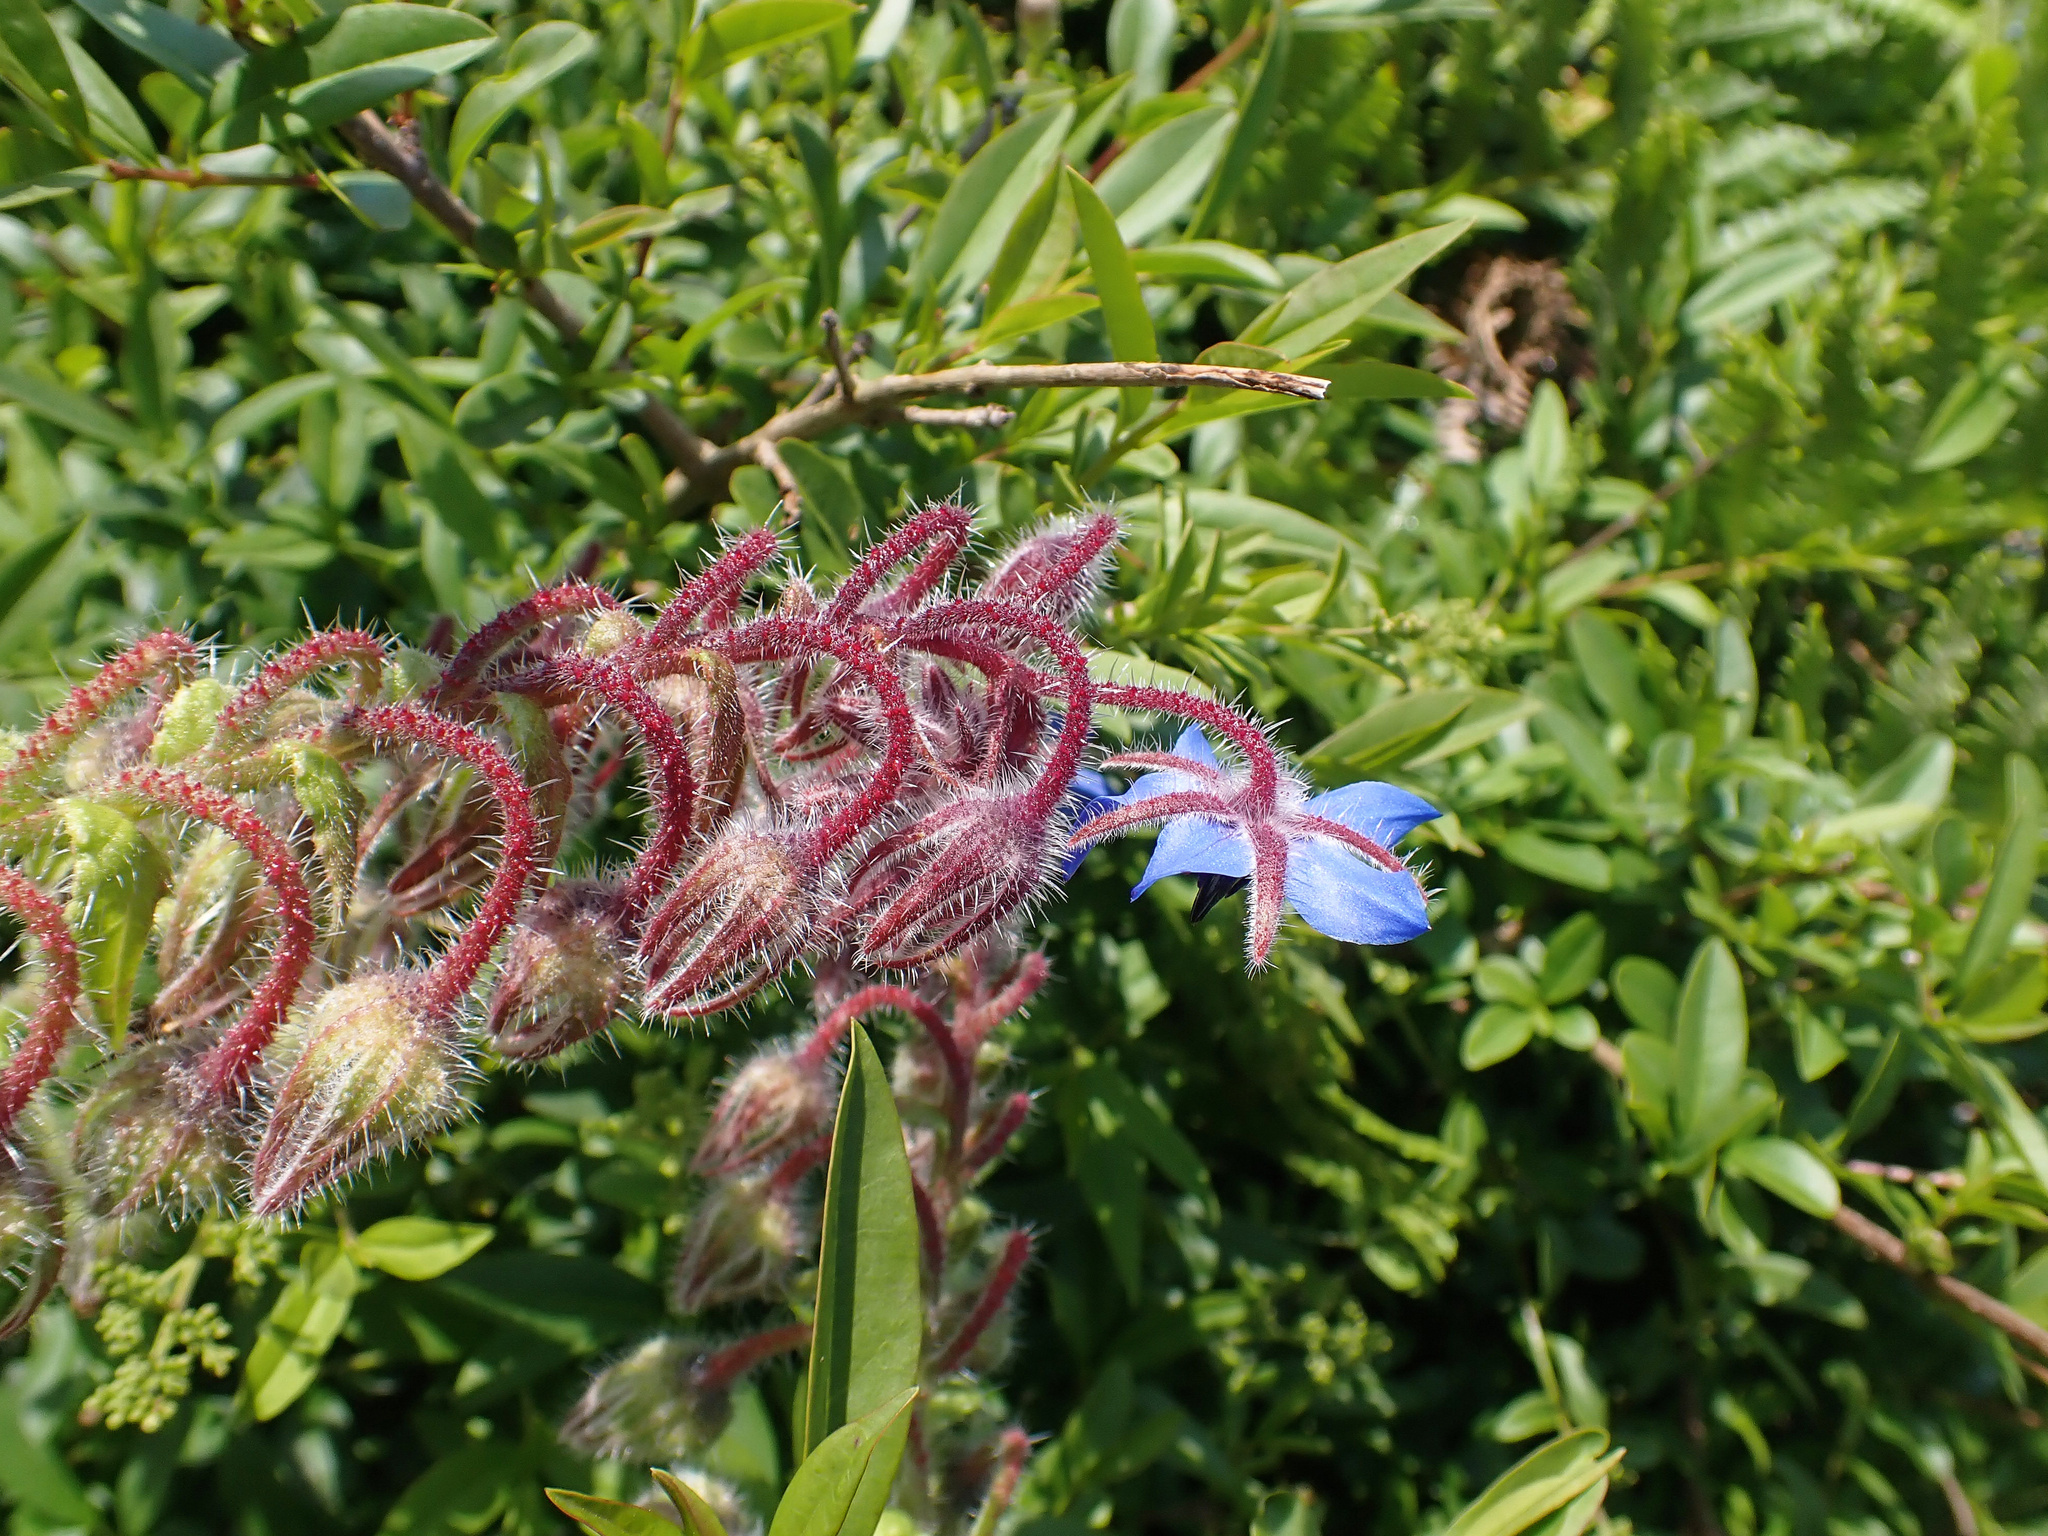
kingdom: Plantae
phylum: Tracheophyta
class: Magnoliopsida
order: Boraginales
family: Boraginaceae
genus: Borago
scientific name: Borago officinalis
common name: Borage
